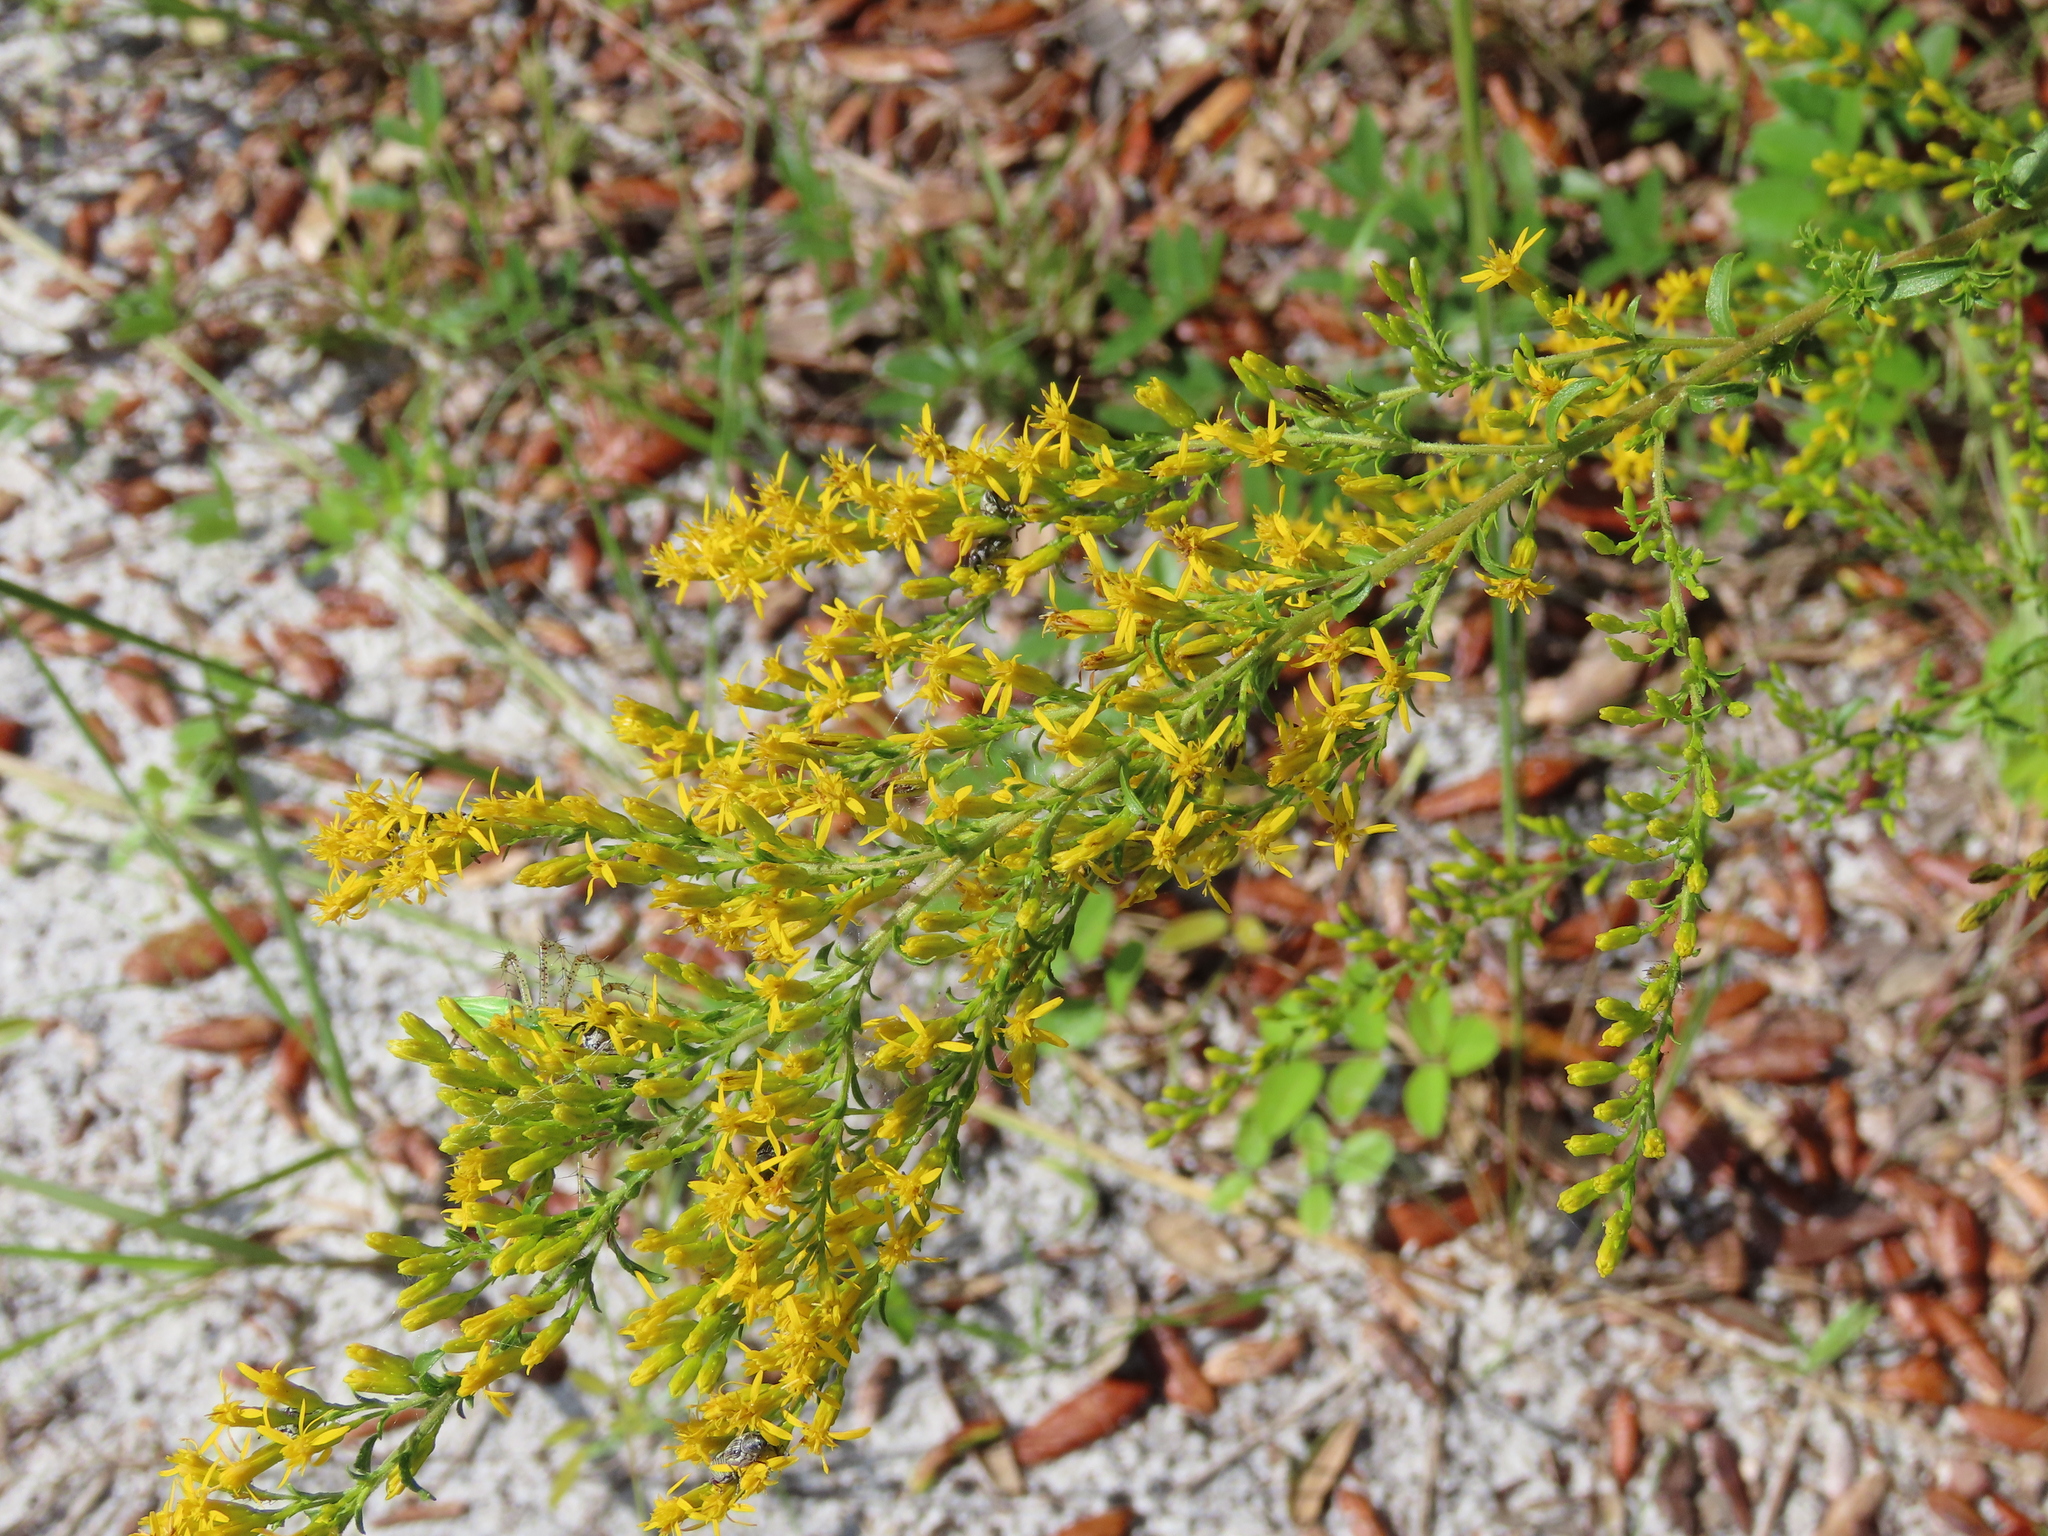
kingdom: Plantae
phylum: Tracheophyta
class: Magnoliopsida
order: Asterales
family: Asteraceae
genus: Solidago
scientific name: Solidago chapmanii
